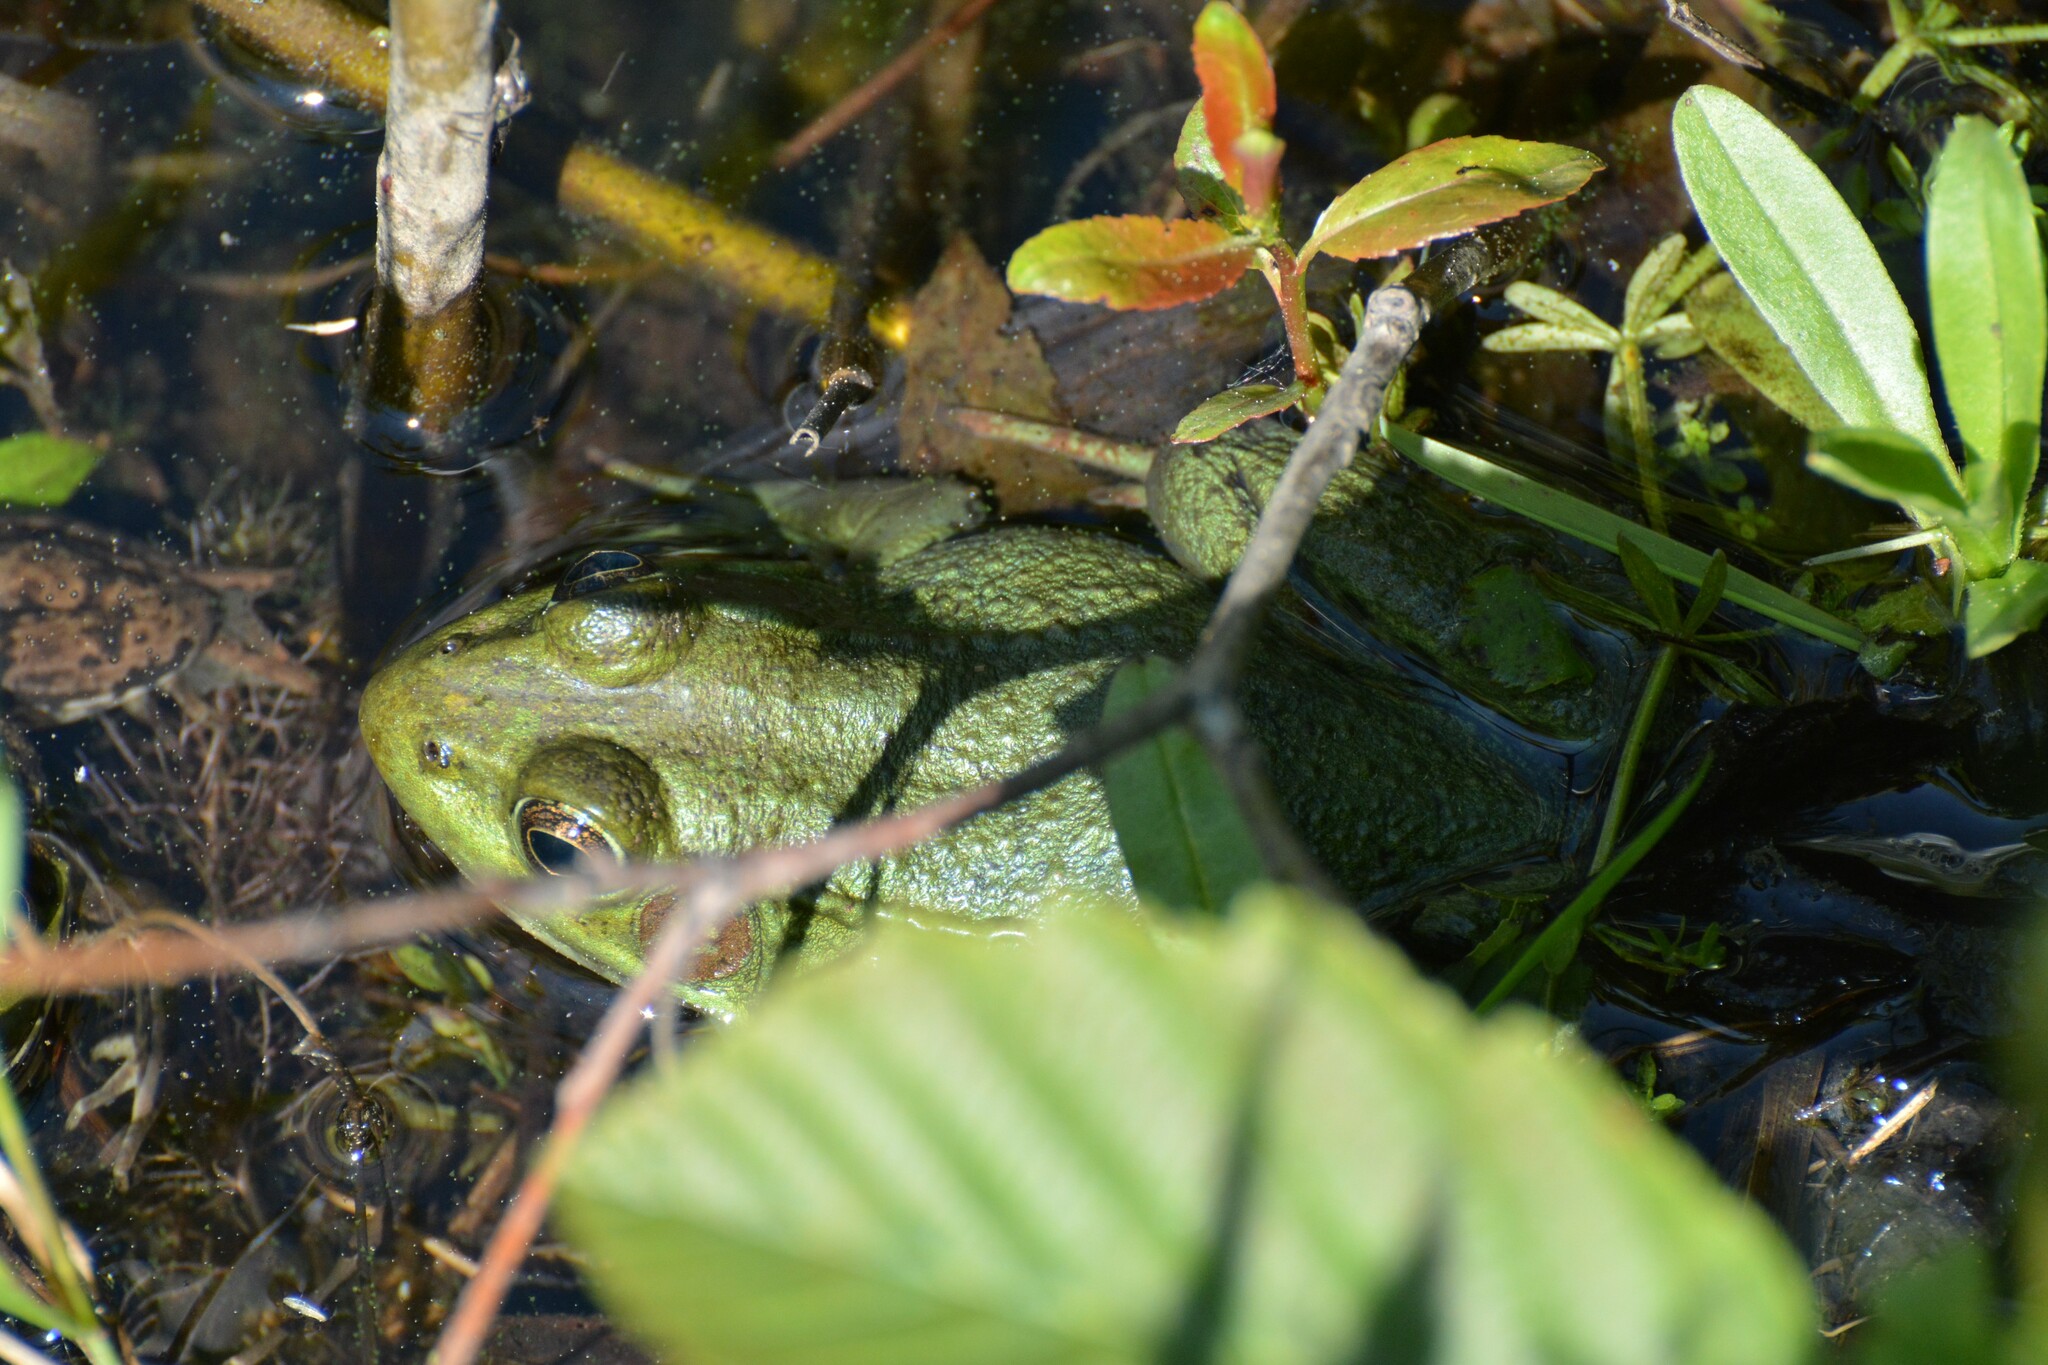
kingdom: Animalia
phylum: Chordata
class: Amphibia
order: Anura
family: Ranidae
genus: Lithobates
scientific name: Lithobates clamitans
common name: Green frog
